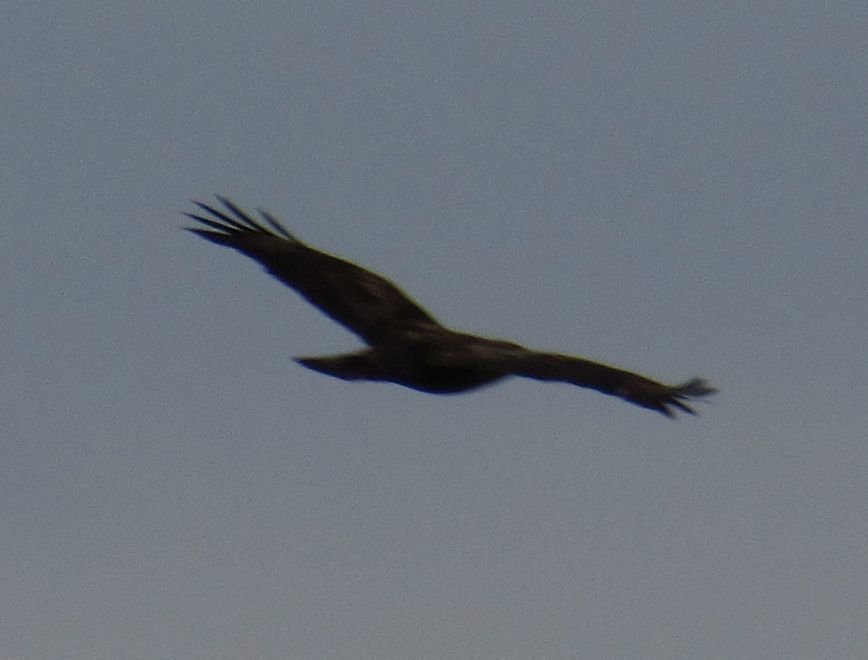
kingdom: Animalia
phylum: Chordata
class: Aves
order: Accipitriformes
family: Accipitridae
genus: Buteo
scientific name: Buteo buteo
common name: Common buzzard
